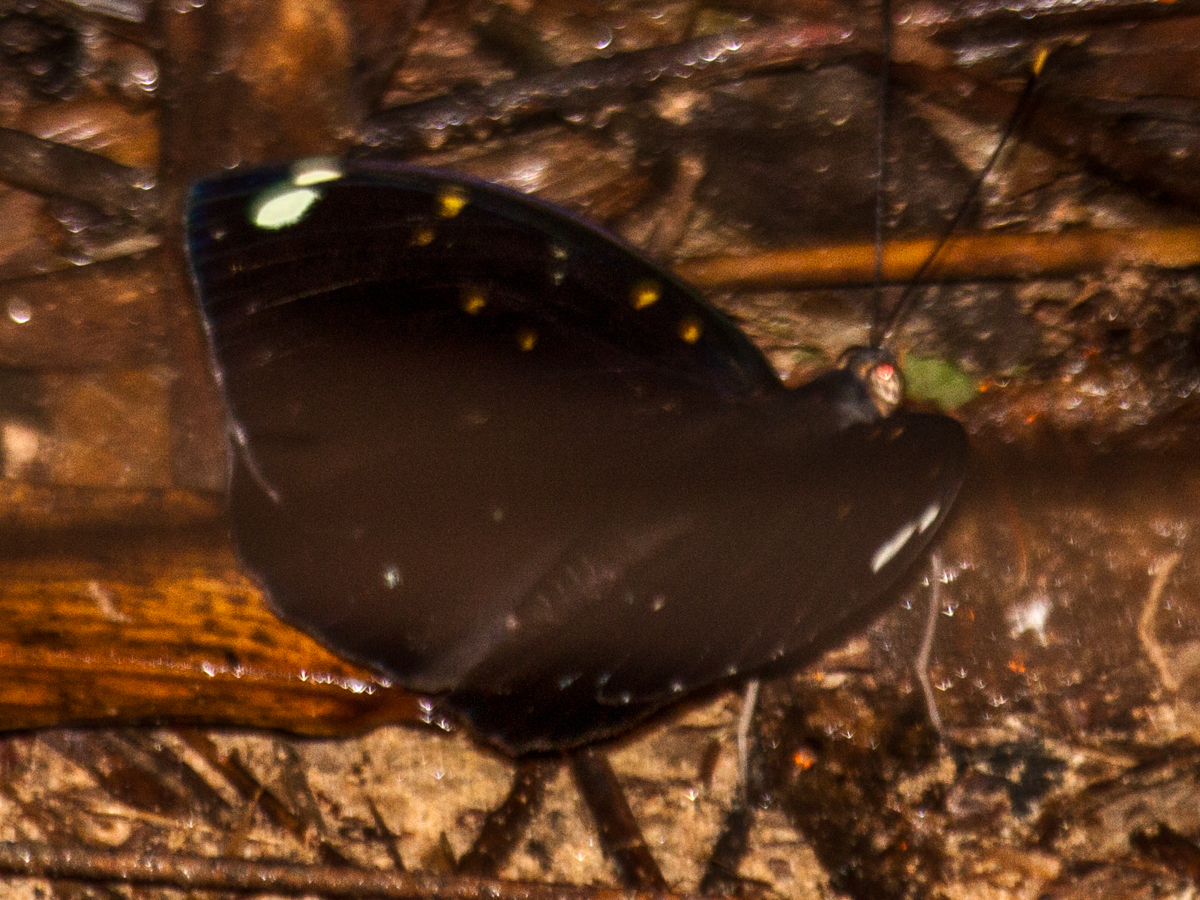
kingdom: Animalia
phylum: Arthropoda
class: Insecta
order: Lepidoptera
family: Nymphalidae
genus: Lexias
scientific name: Lexias
